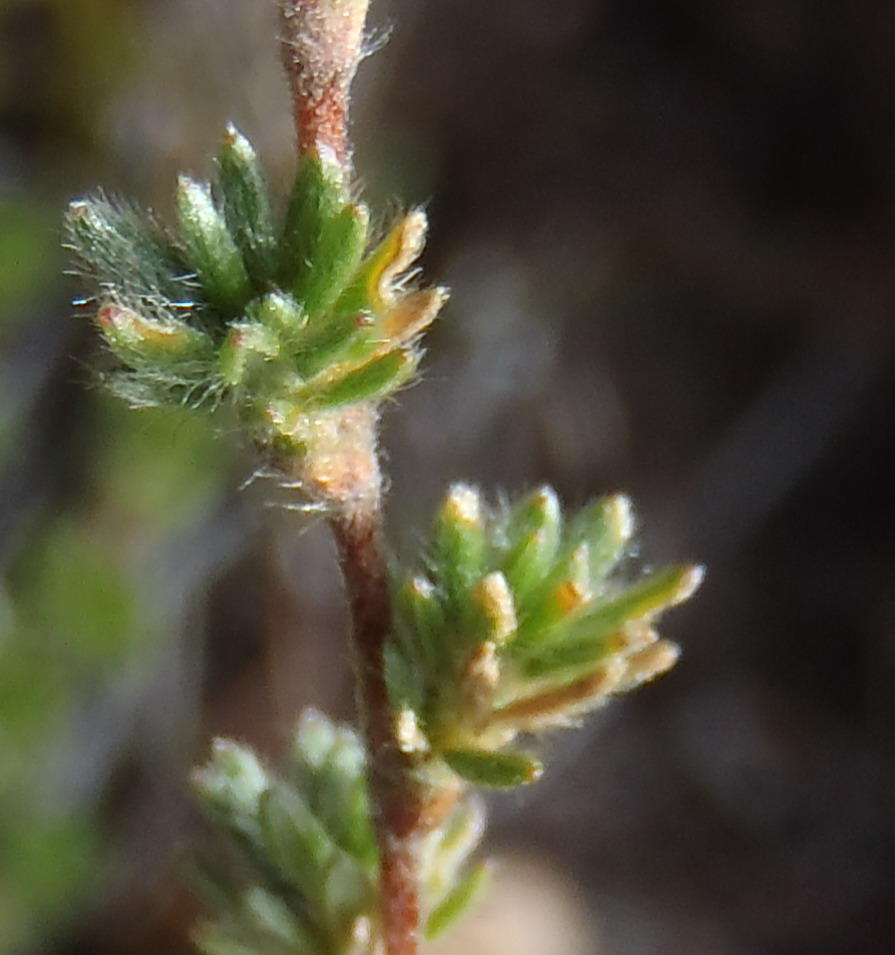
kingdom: Plantae
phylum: Tracheophyta
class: Magnoliopsida
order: Rosales
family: Rosaceae
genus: Cliffortia
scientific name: Cliffortia eriocephalina
